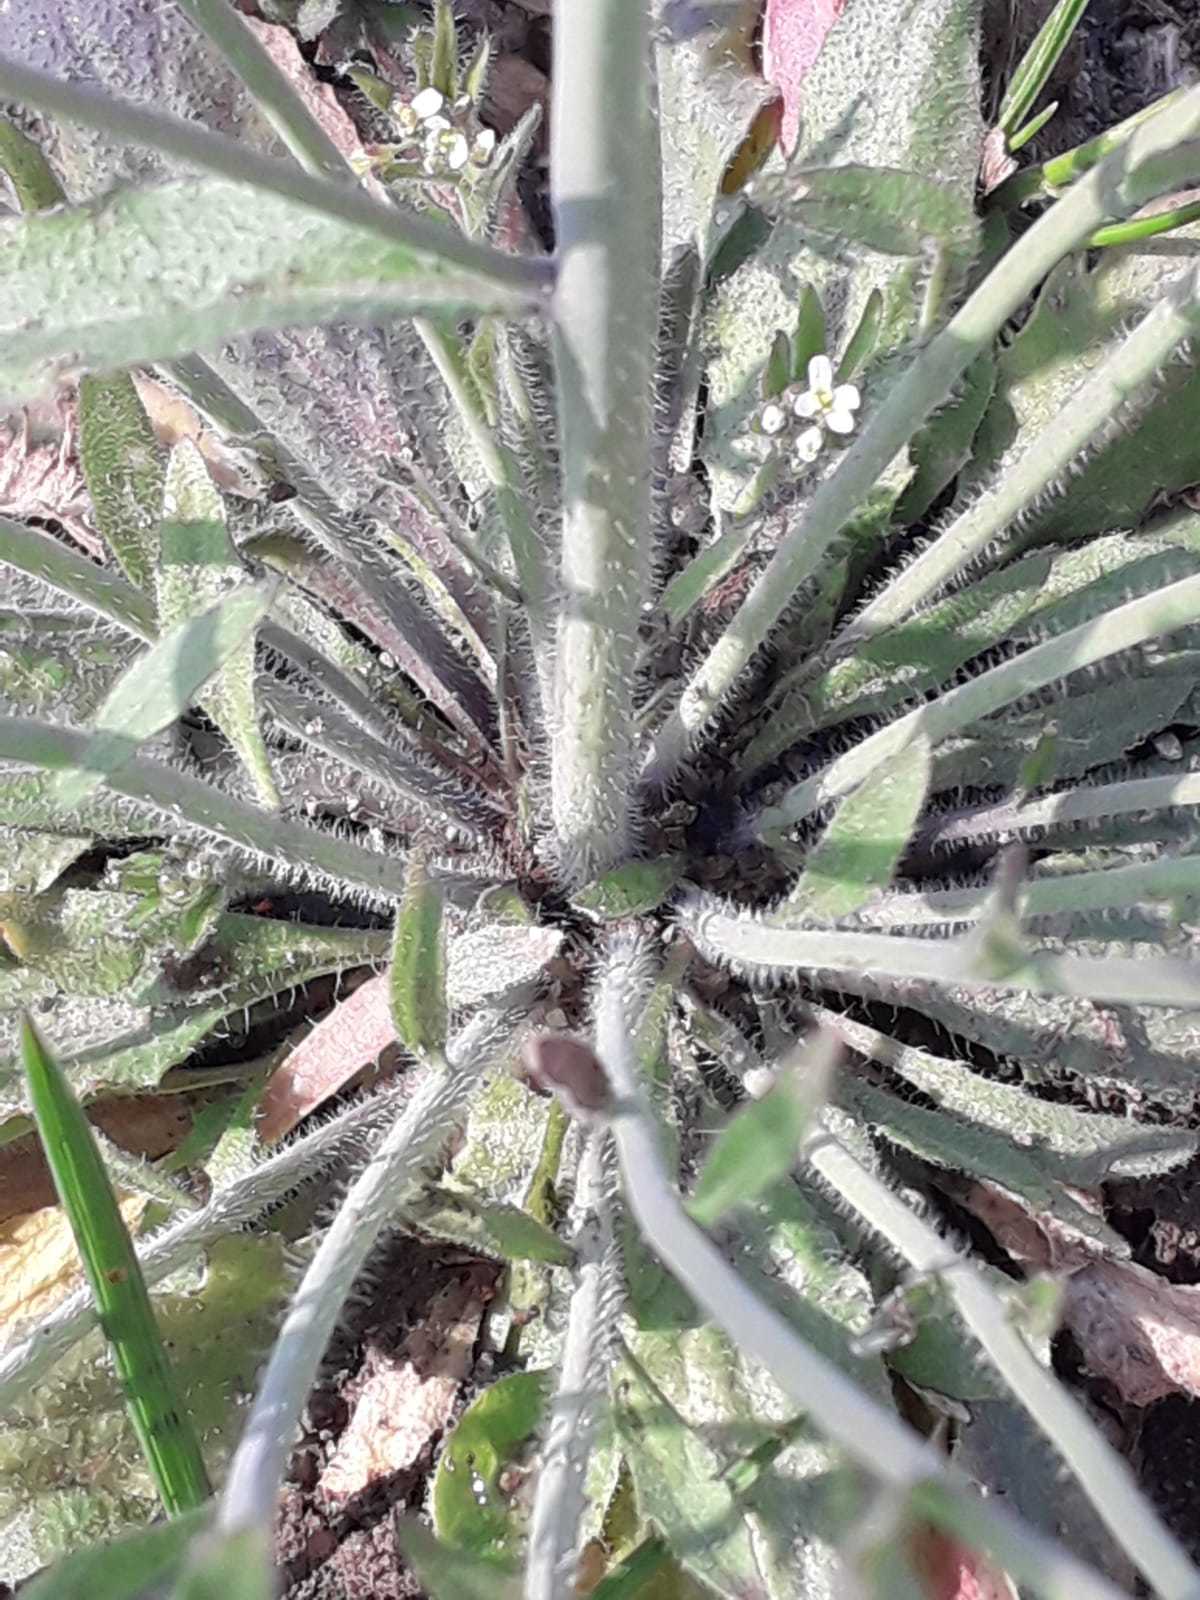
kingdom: Plantae
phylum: Tracheophyta
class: Magnoliopsida
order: Brassicales
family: Brassicaceae
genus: Arabidopsis
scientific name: Arabidopsis thaliana
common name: Thale cress
